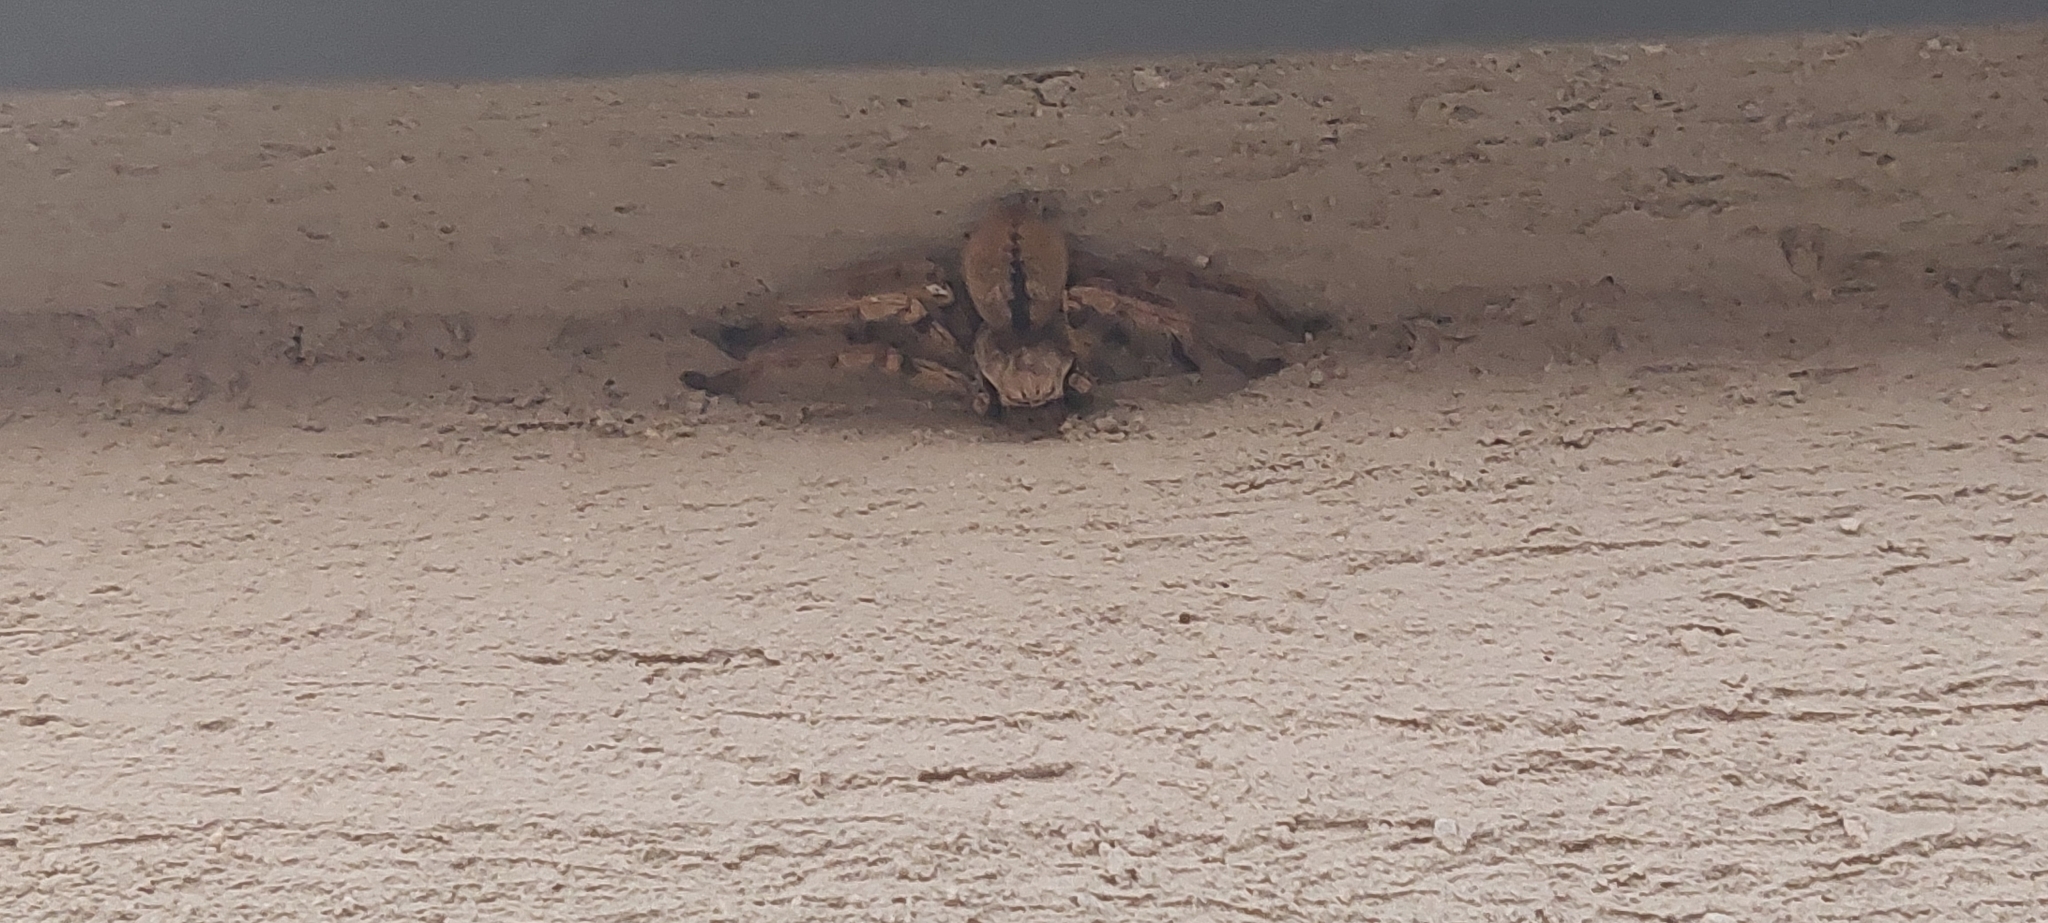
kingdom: Animalia
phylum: Arthropoda
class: Arachnida
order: Araneae
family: Sparassidae
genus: Polybetes
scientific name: Polybetes pythagoricus
